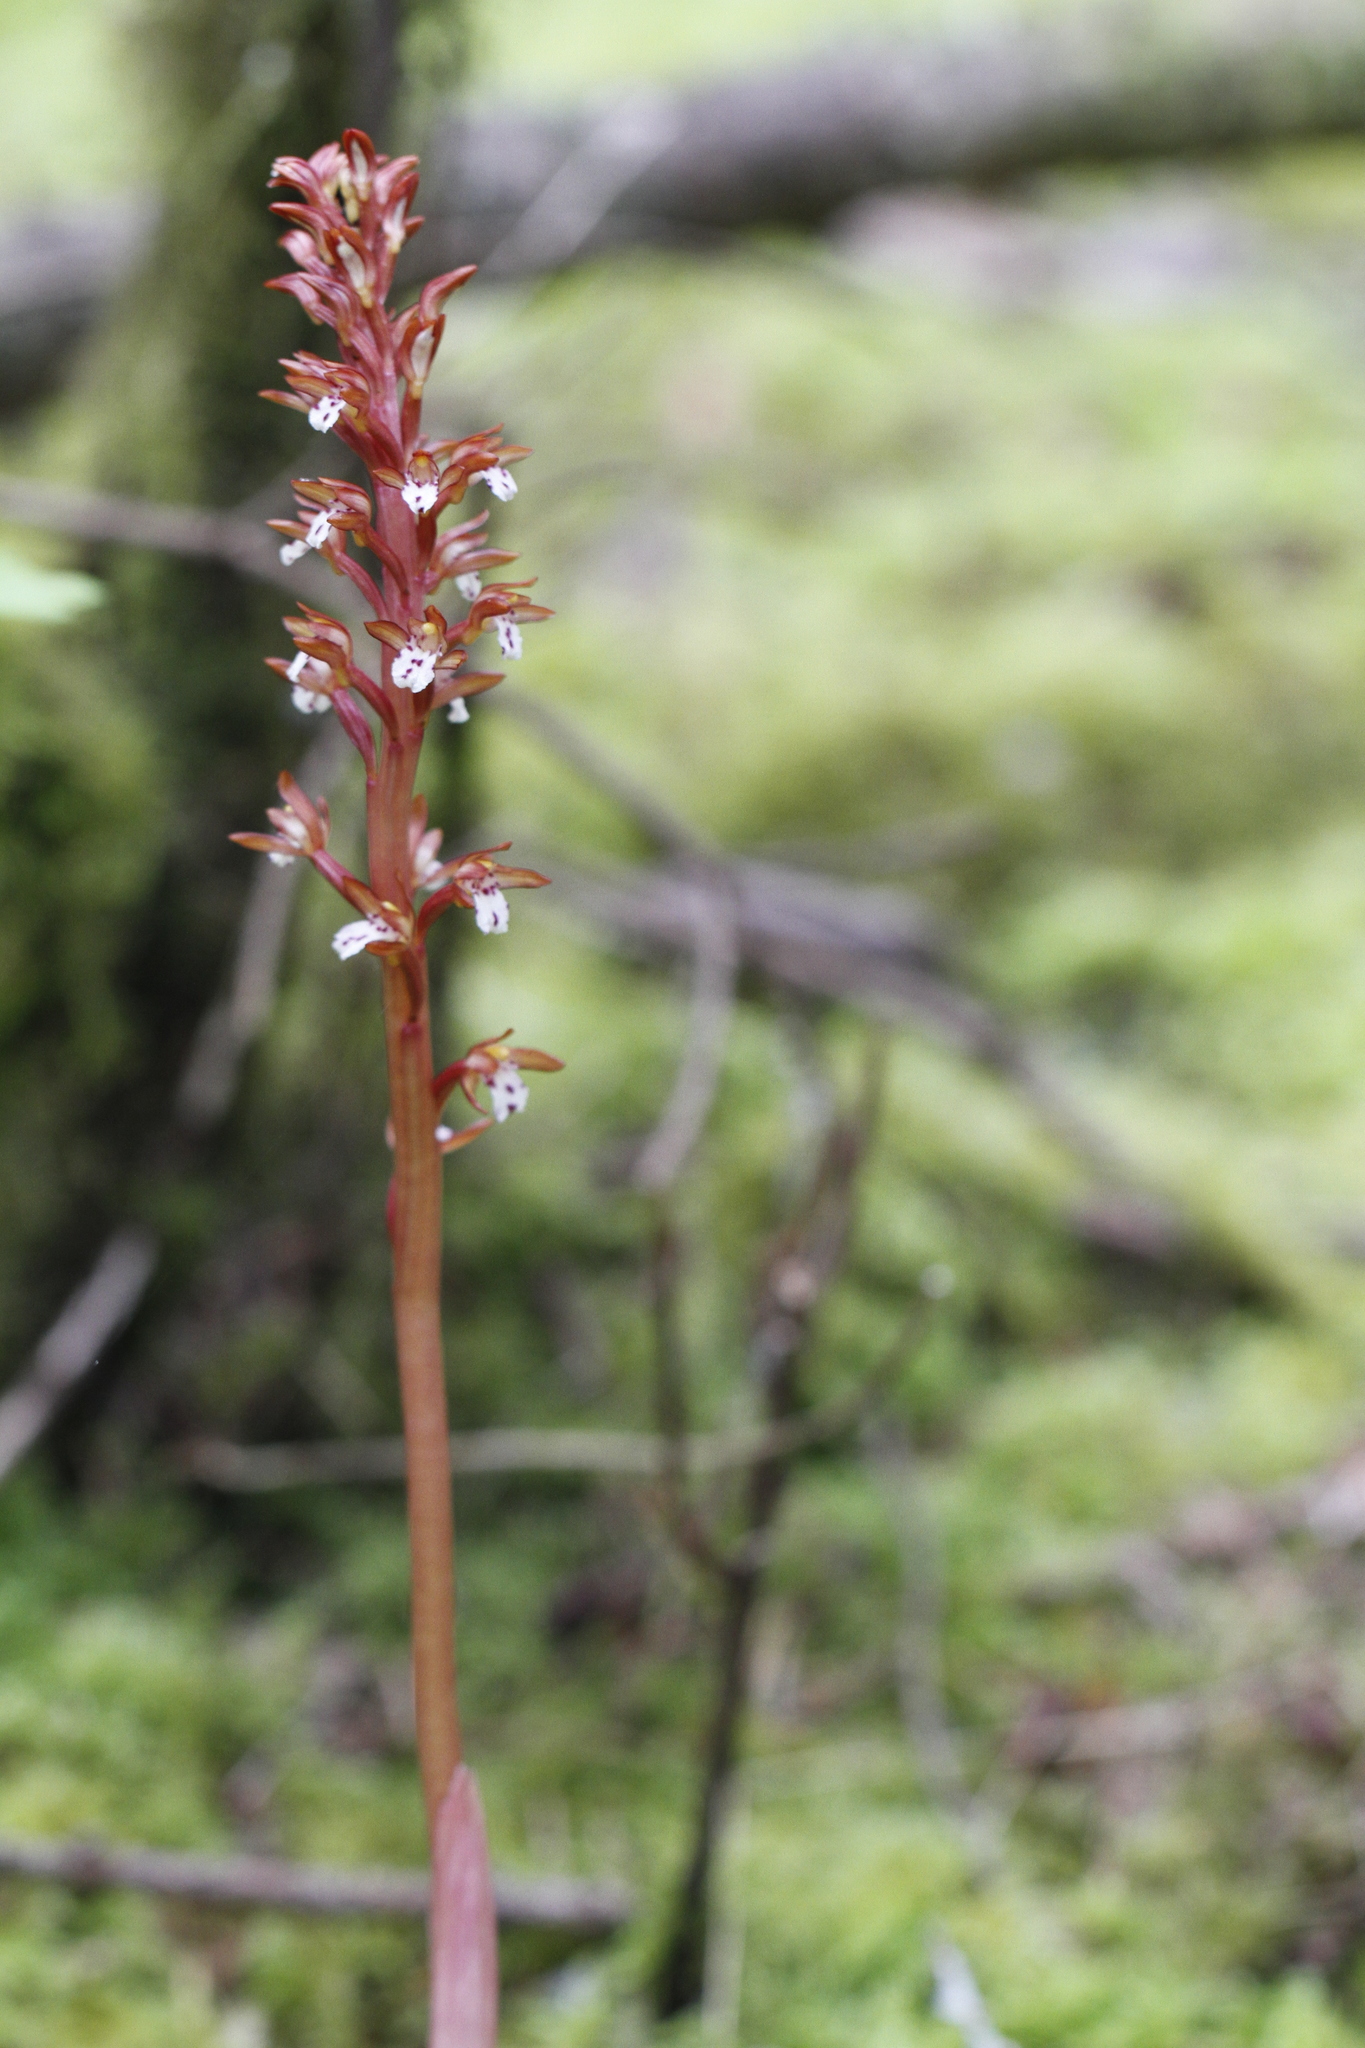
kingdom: Plantae
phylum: Tracheophyta
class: Liliopsida
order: Asparagales
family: Orchidaceae
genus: Corallorhiza
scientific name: Corallorhiza maculata
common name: Spotted coralroot
